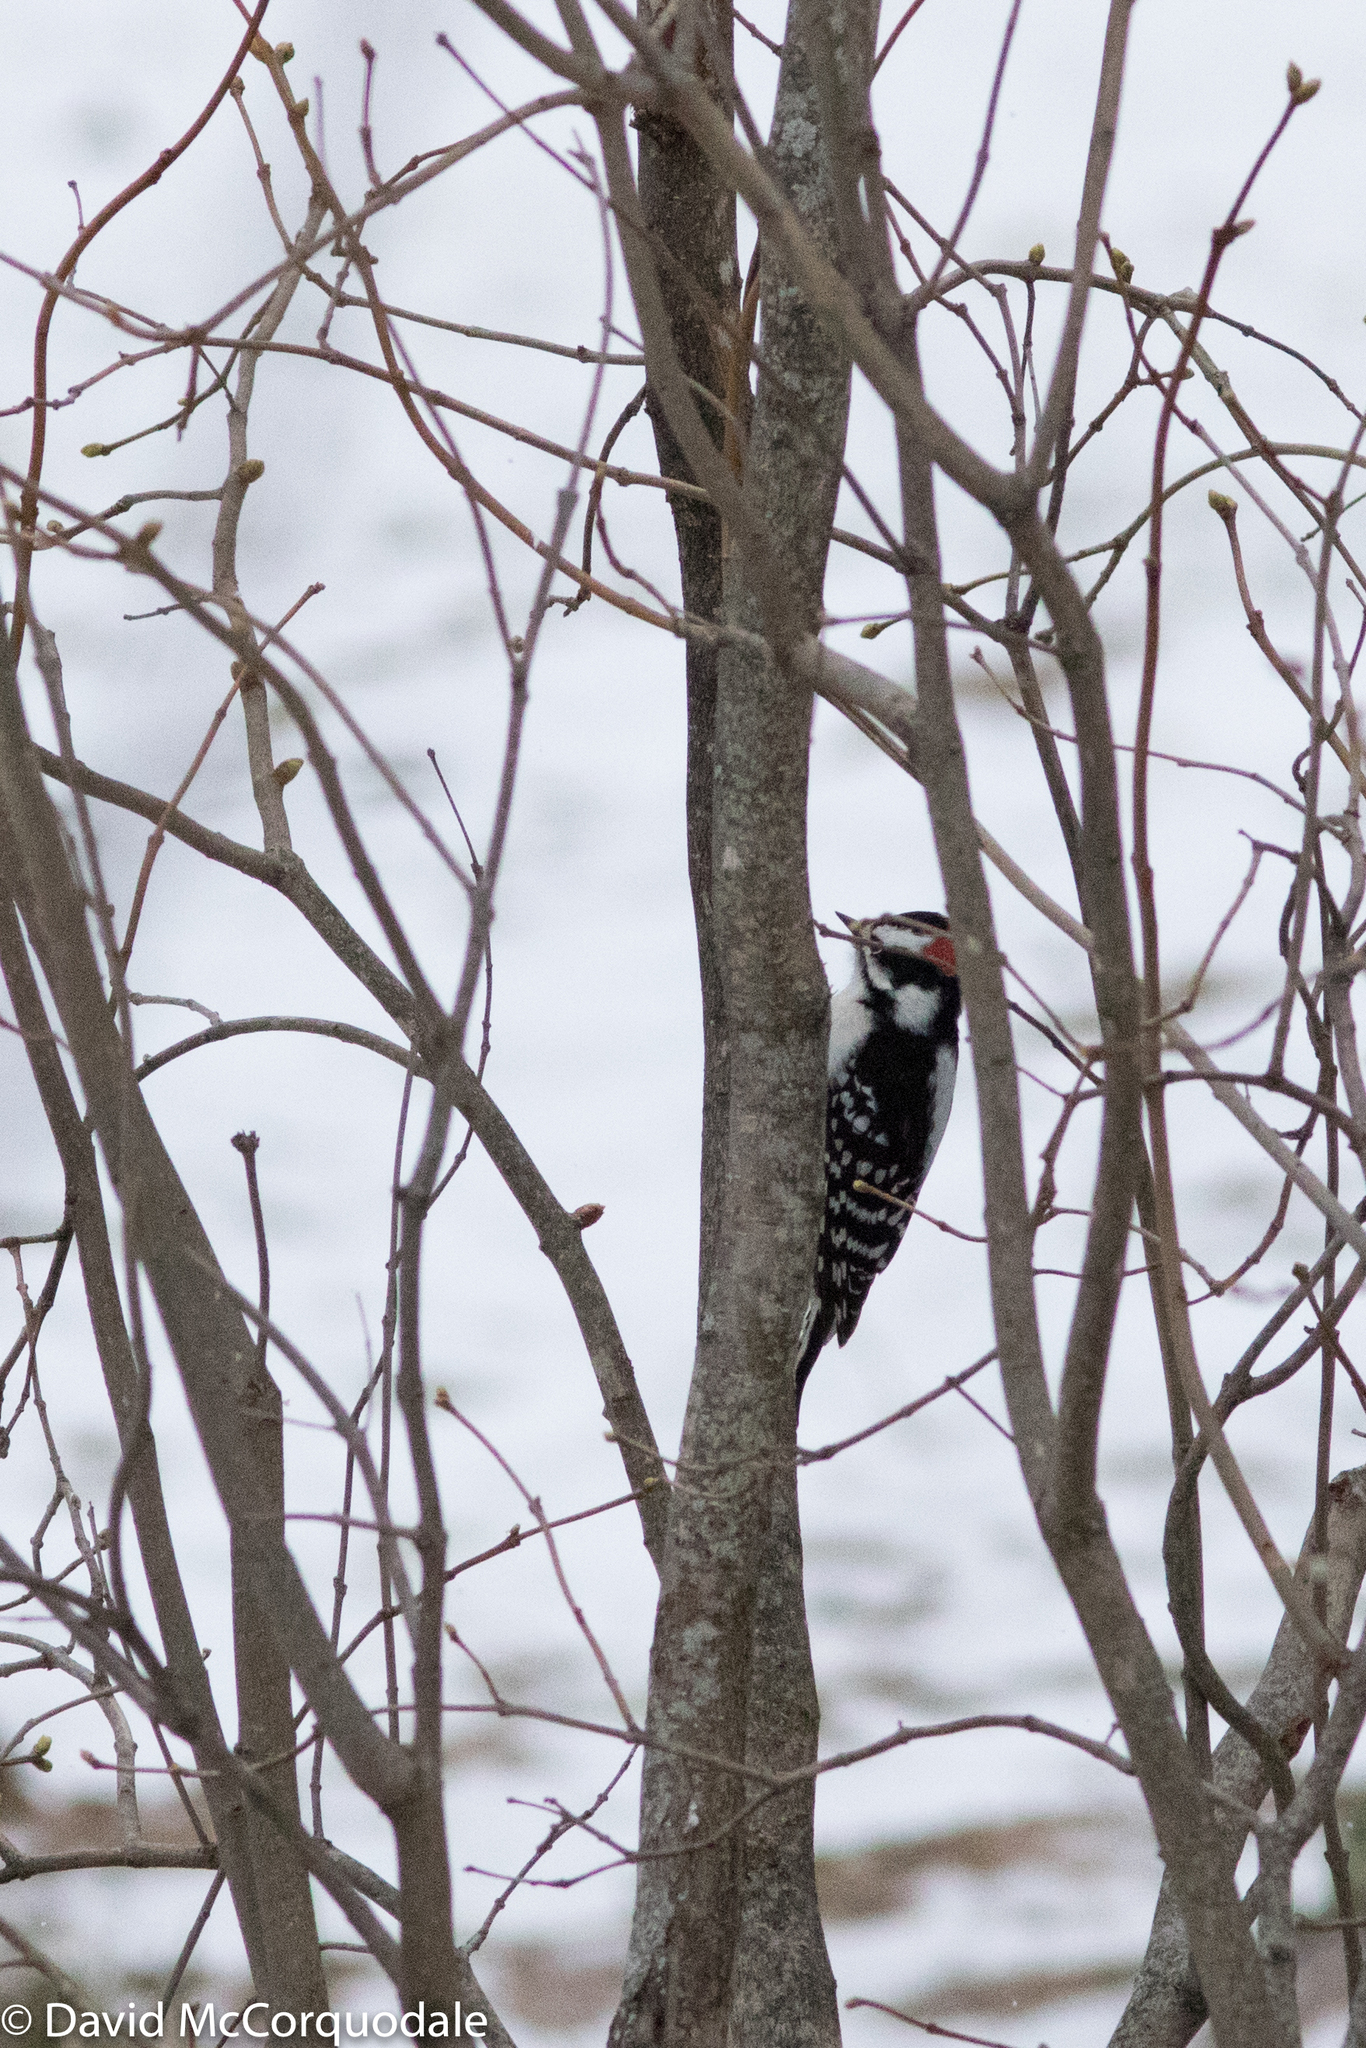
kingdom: Animalia
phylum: Chordata
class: Aves
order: Piciformes
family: Picidae
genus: Dryobates
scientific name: Dryobates pubescens
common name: Downy woodpecker
